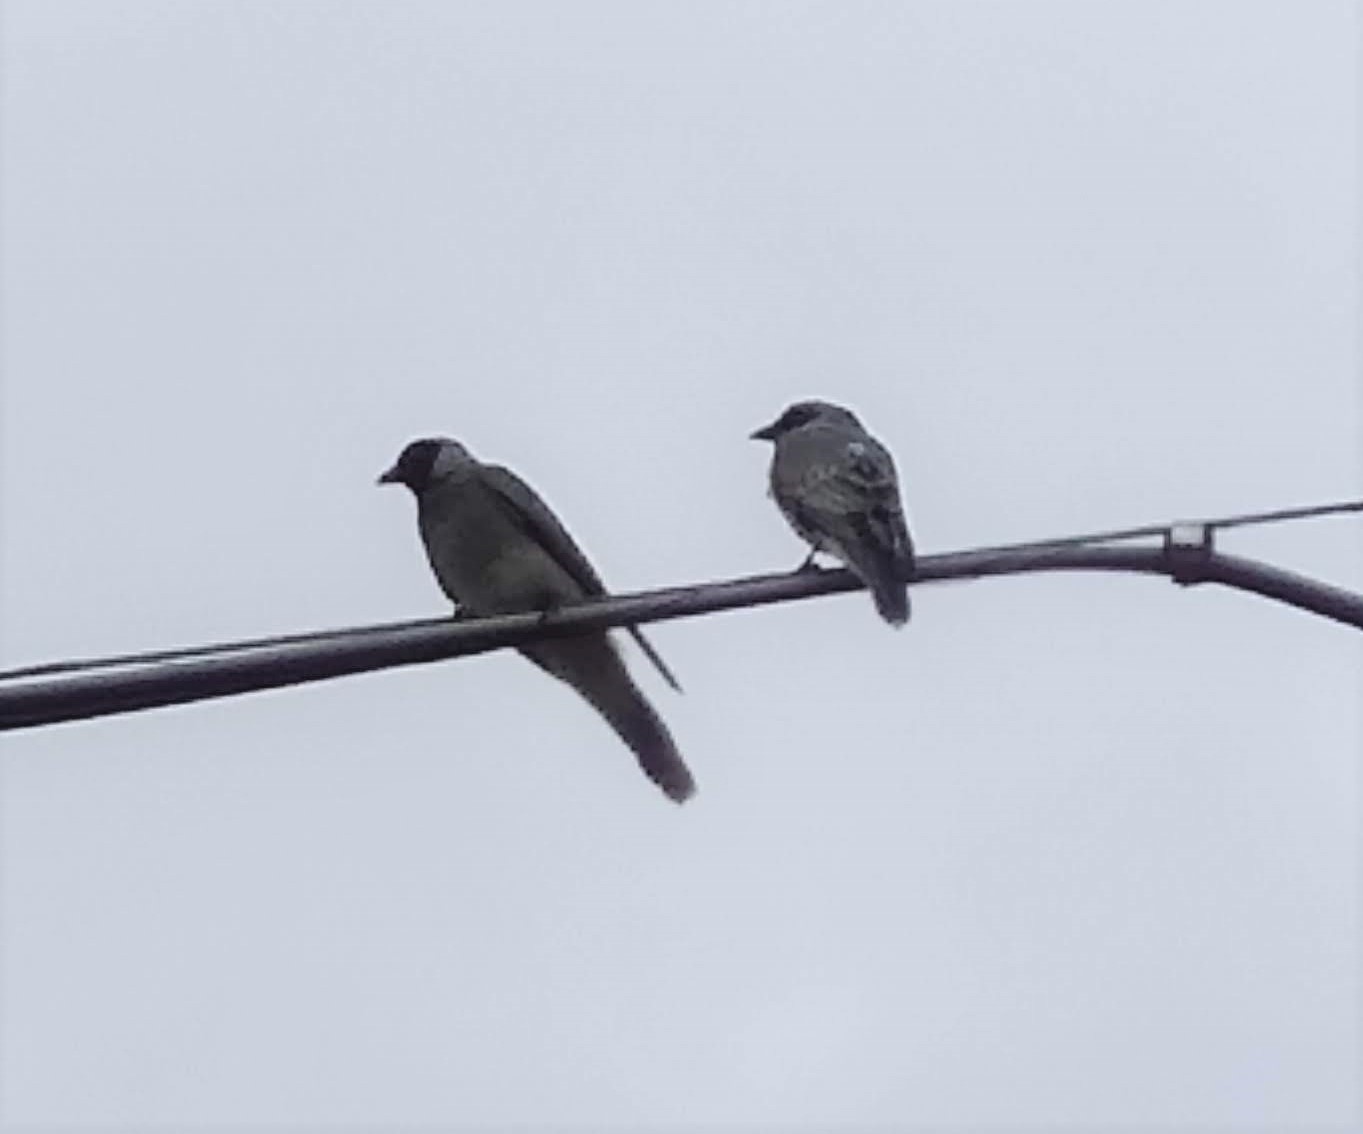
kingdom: Animalia
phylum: Chordata
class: Aves
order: Passeriformes
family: Campephagidae
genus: Coracina
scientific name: Coracina novaehollandiae
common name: Black-faced cuckooshrike
